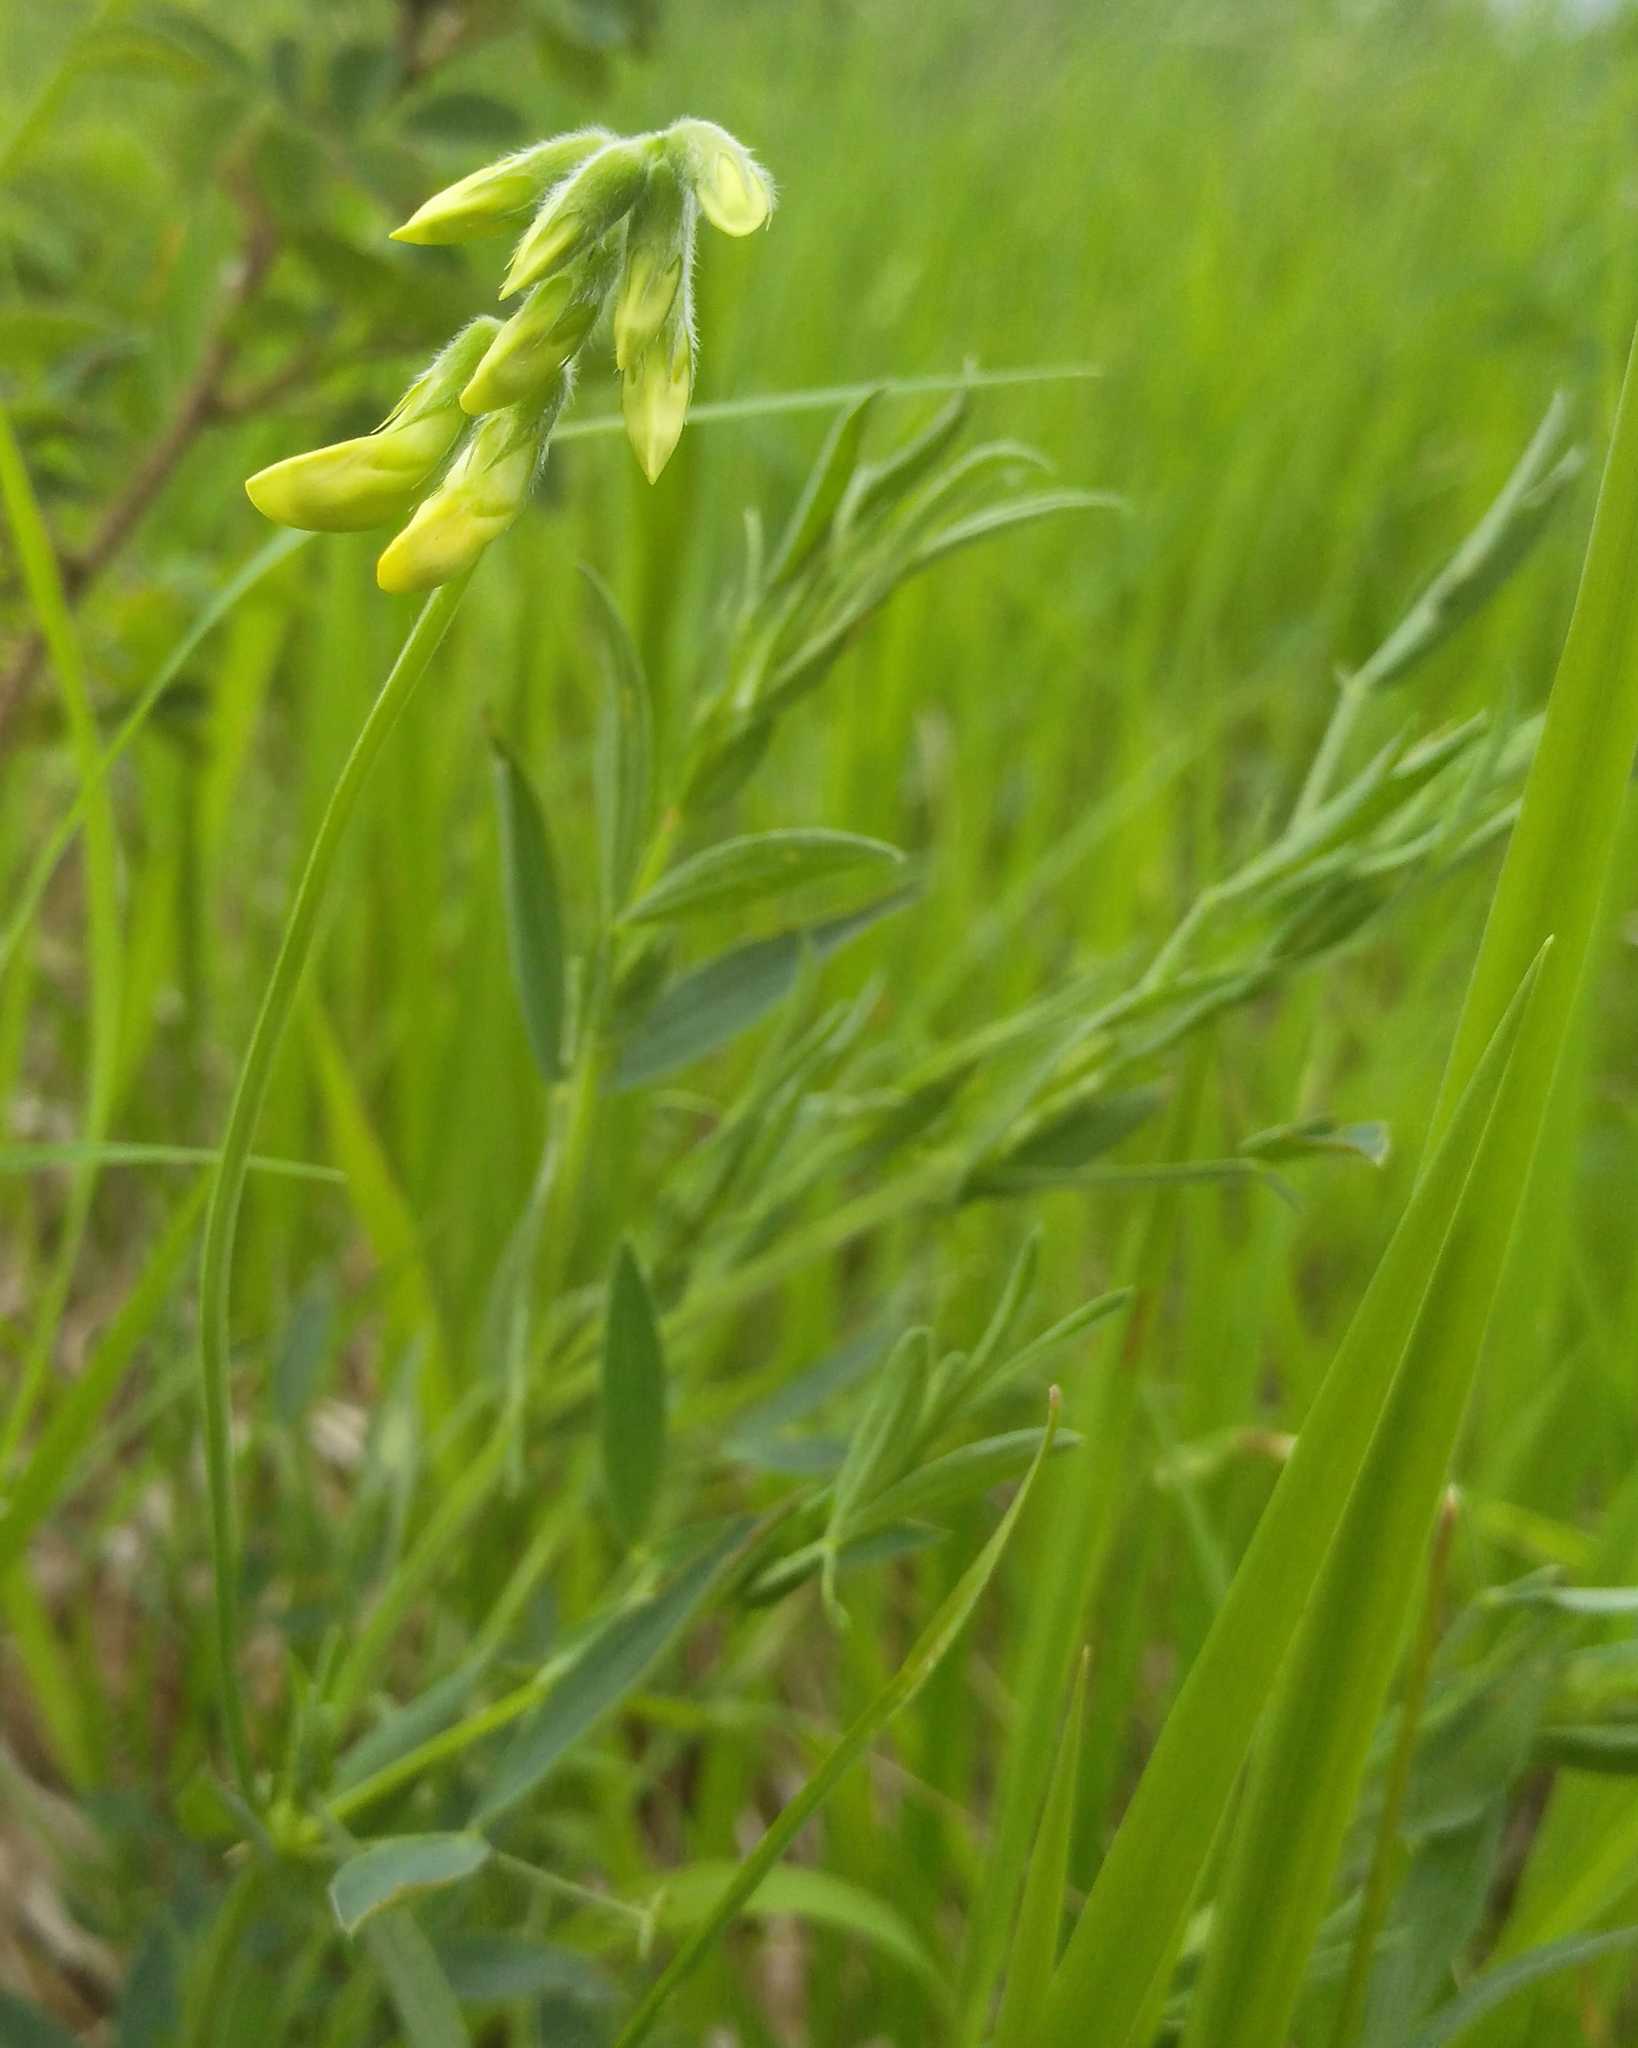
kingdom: Plantae
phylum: Tracheophyta
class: Magnoliopsida
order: Fabales
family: Fabaceae
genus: Lathyrus
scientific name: Lathyrus pratensis
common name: Meadow vetchling
